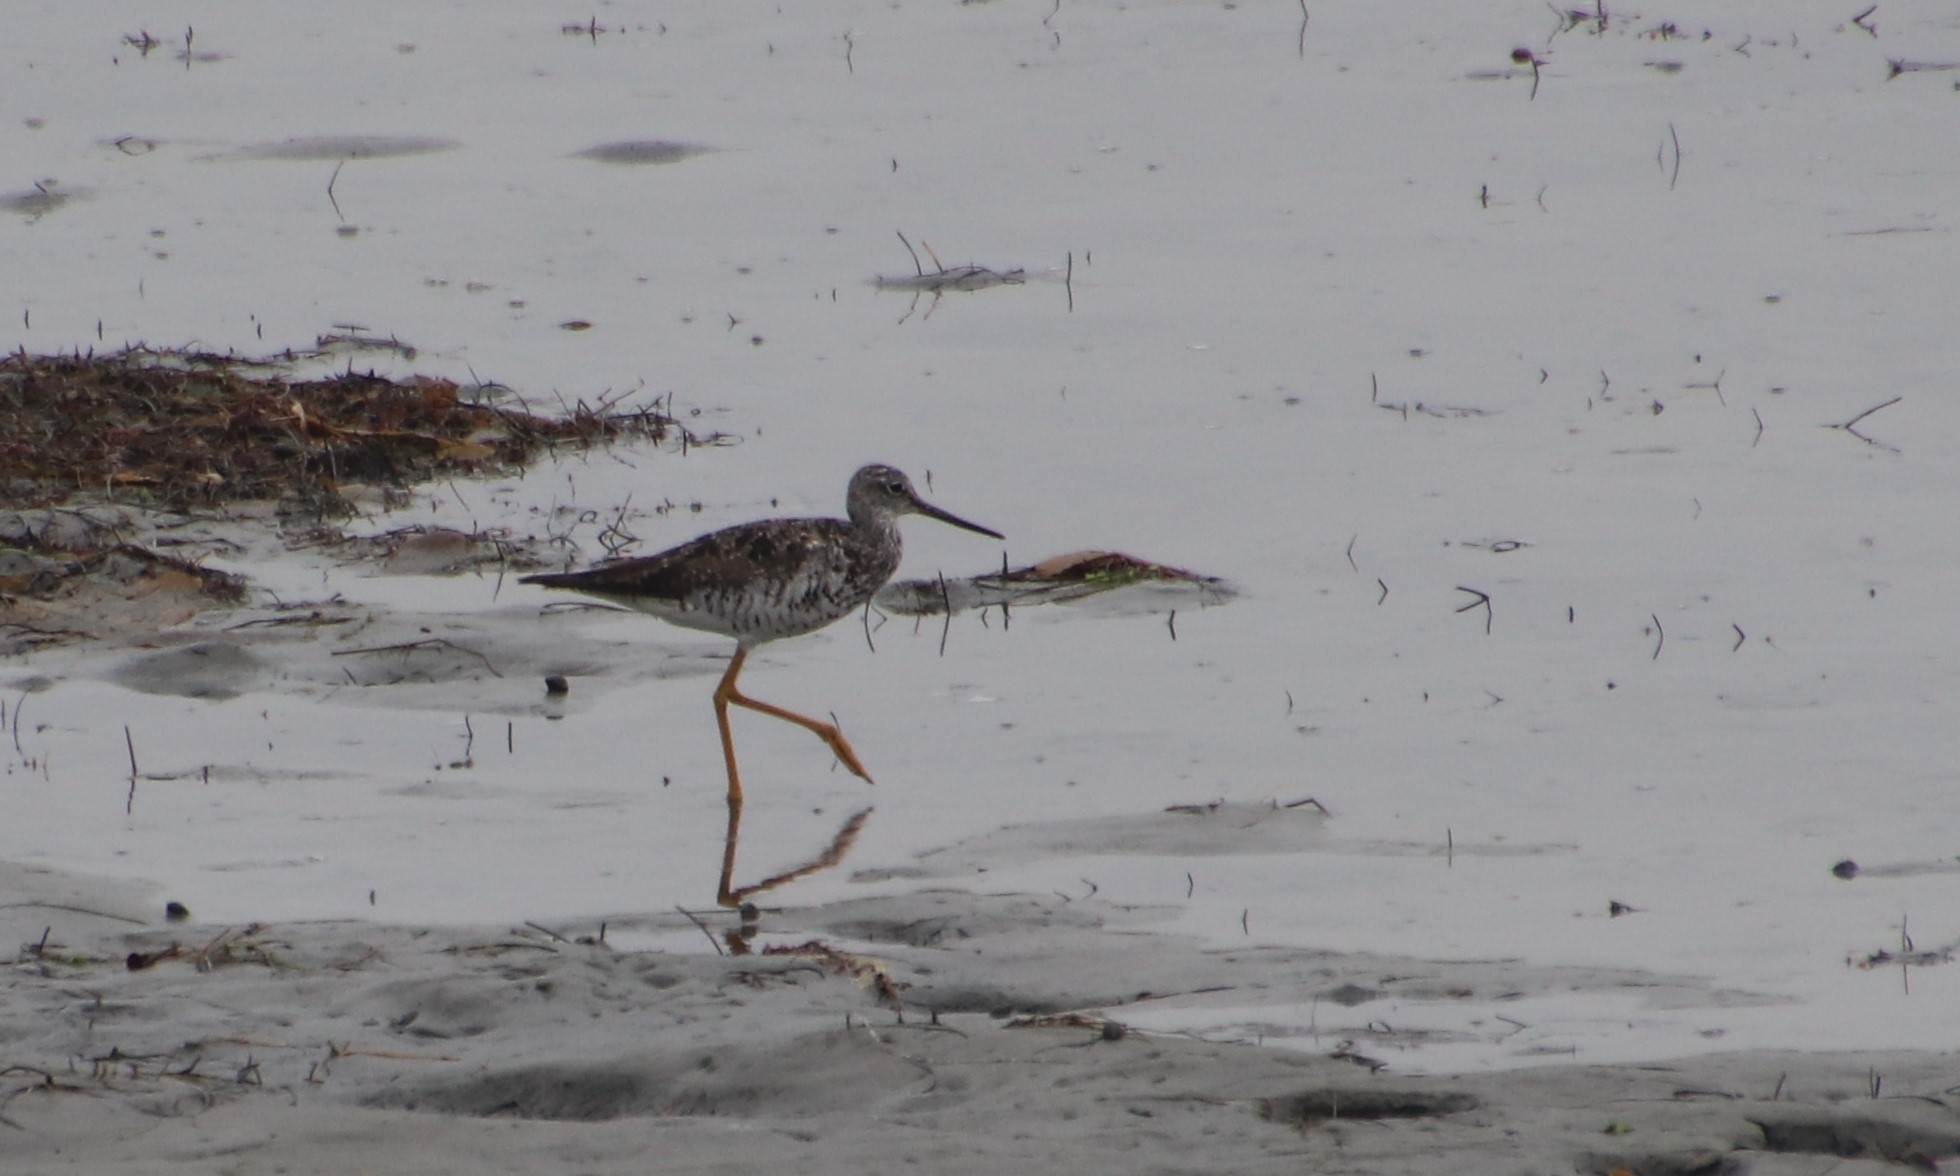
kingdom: Animalia
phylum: Chordata
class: Aves
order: Charadriiformes
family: Scolopacidae
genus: Tringa
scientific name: Tringa melanoleuca
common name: Greater yellowlegs
